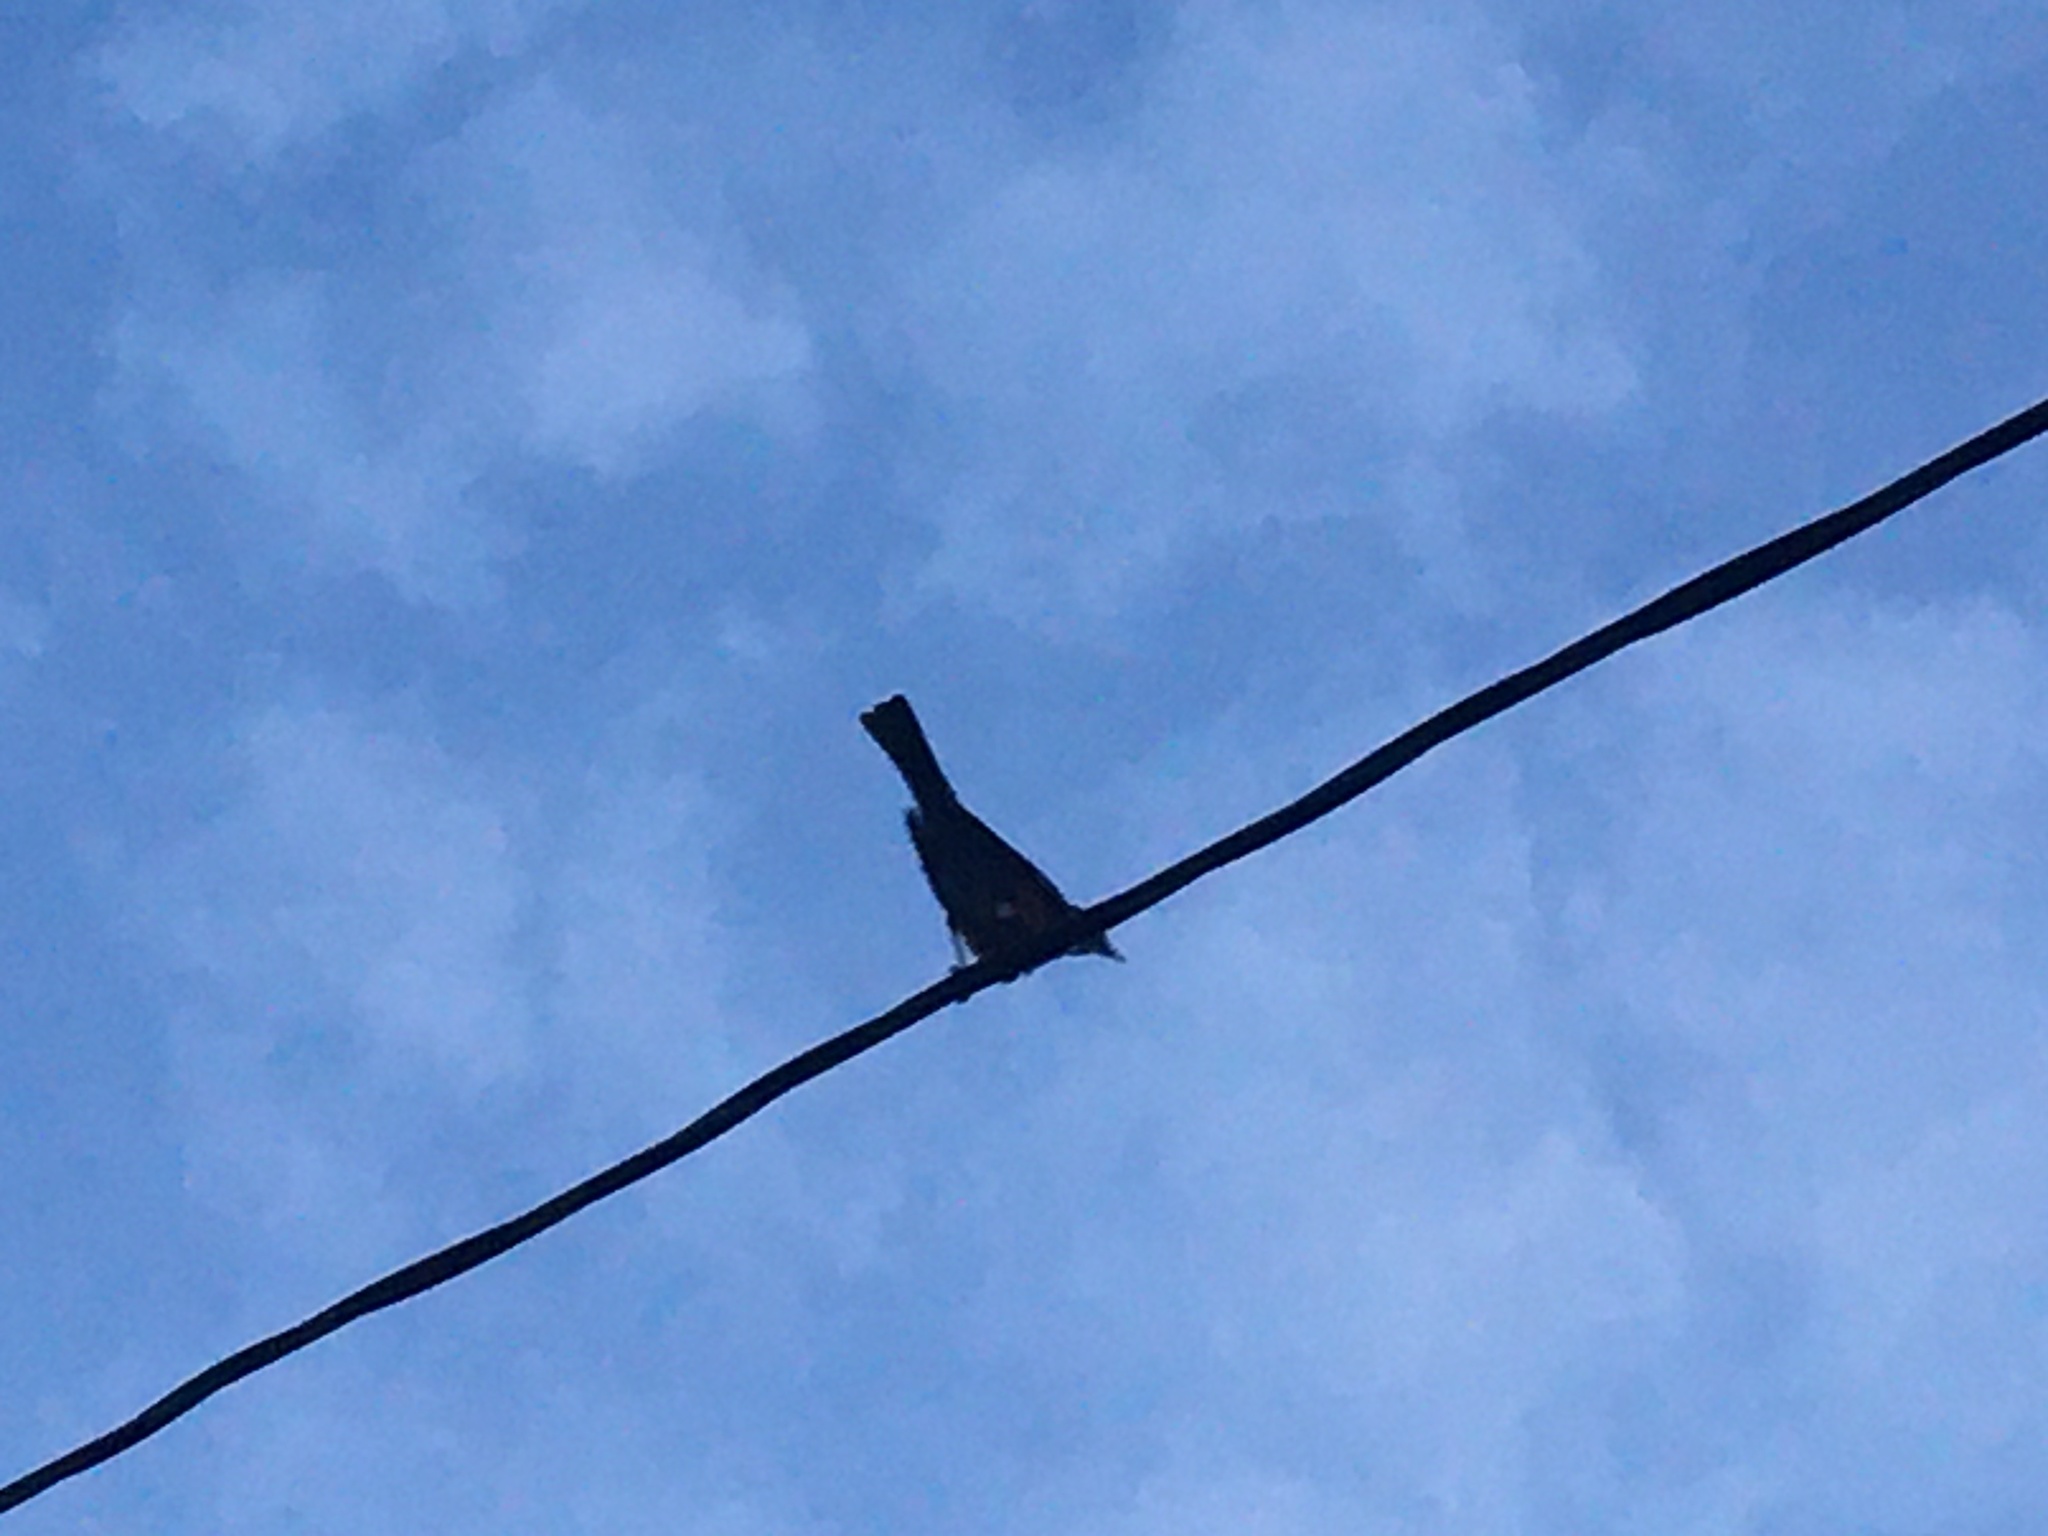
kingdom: Animalia
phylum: Chordata
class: Aves
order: Passeriformes
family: Turdidae
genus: Turdus
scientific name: Turdus migratorius
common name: American robin
